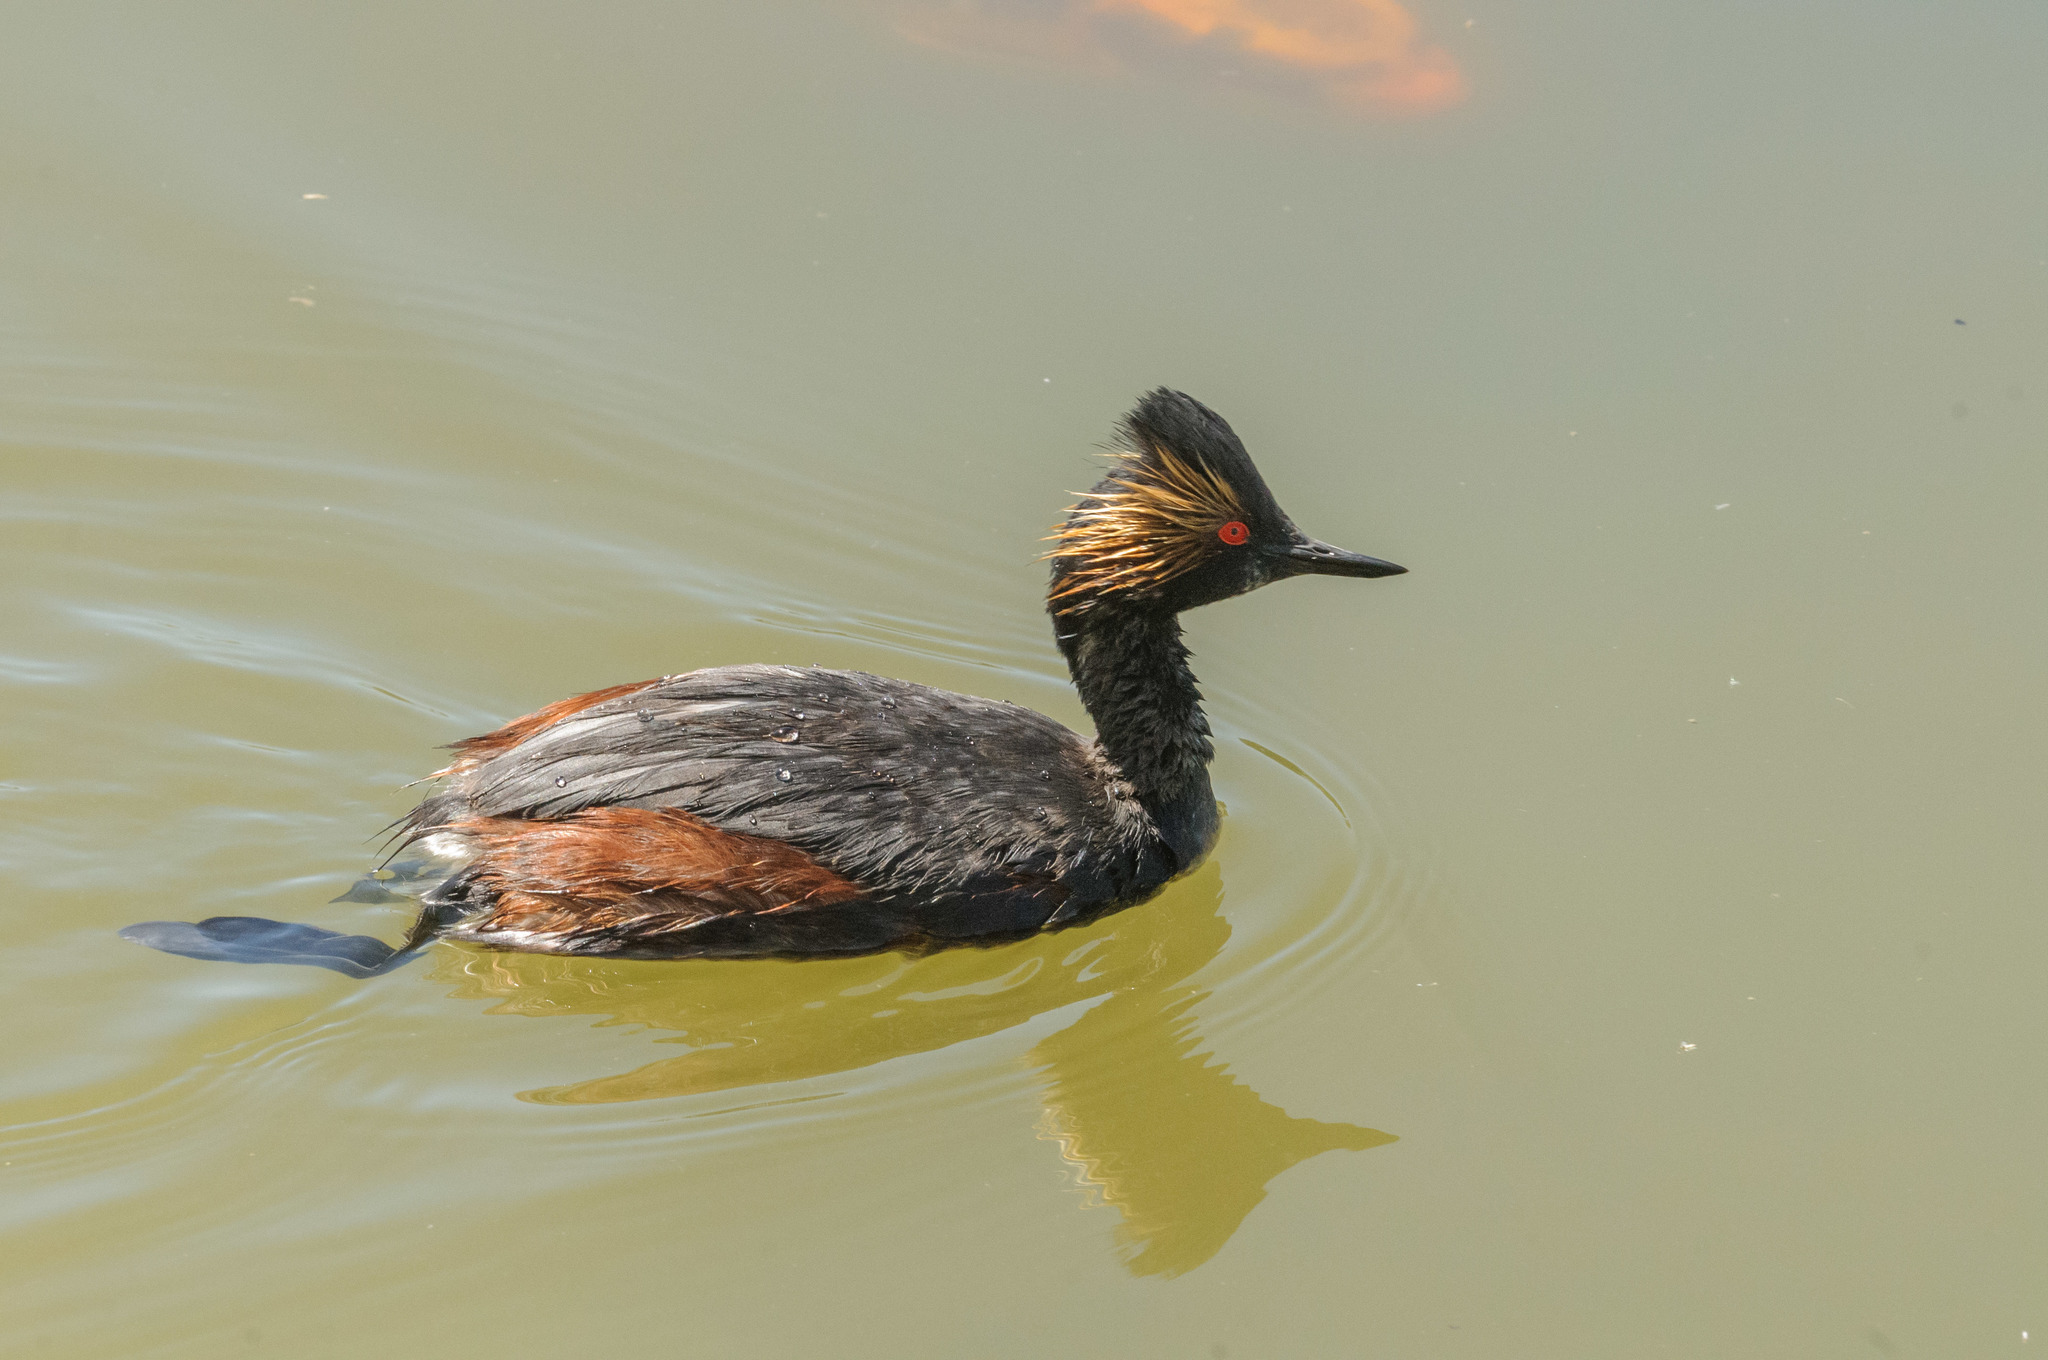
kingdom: Animalia
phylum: Chordata
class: Aves
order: Podicipediformes
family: Podicipedidae
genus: Podiceps
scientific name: Podiceps nigricollis
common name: Black-necked grebe
